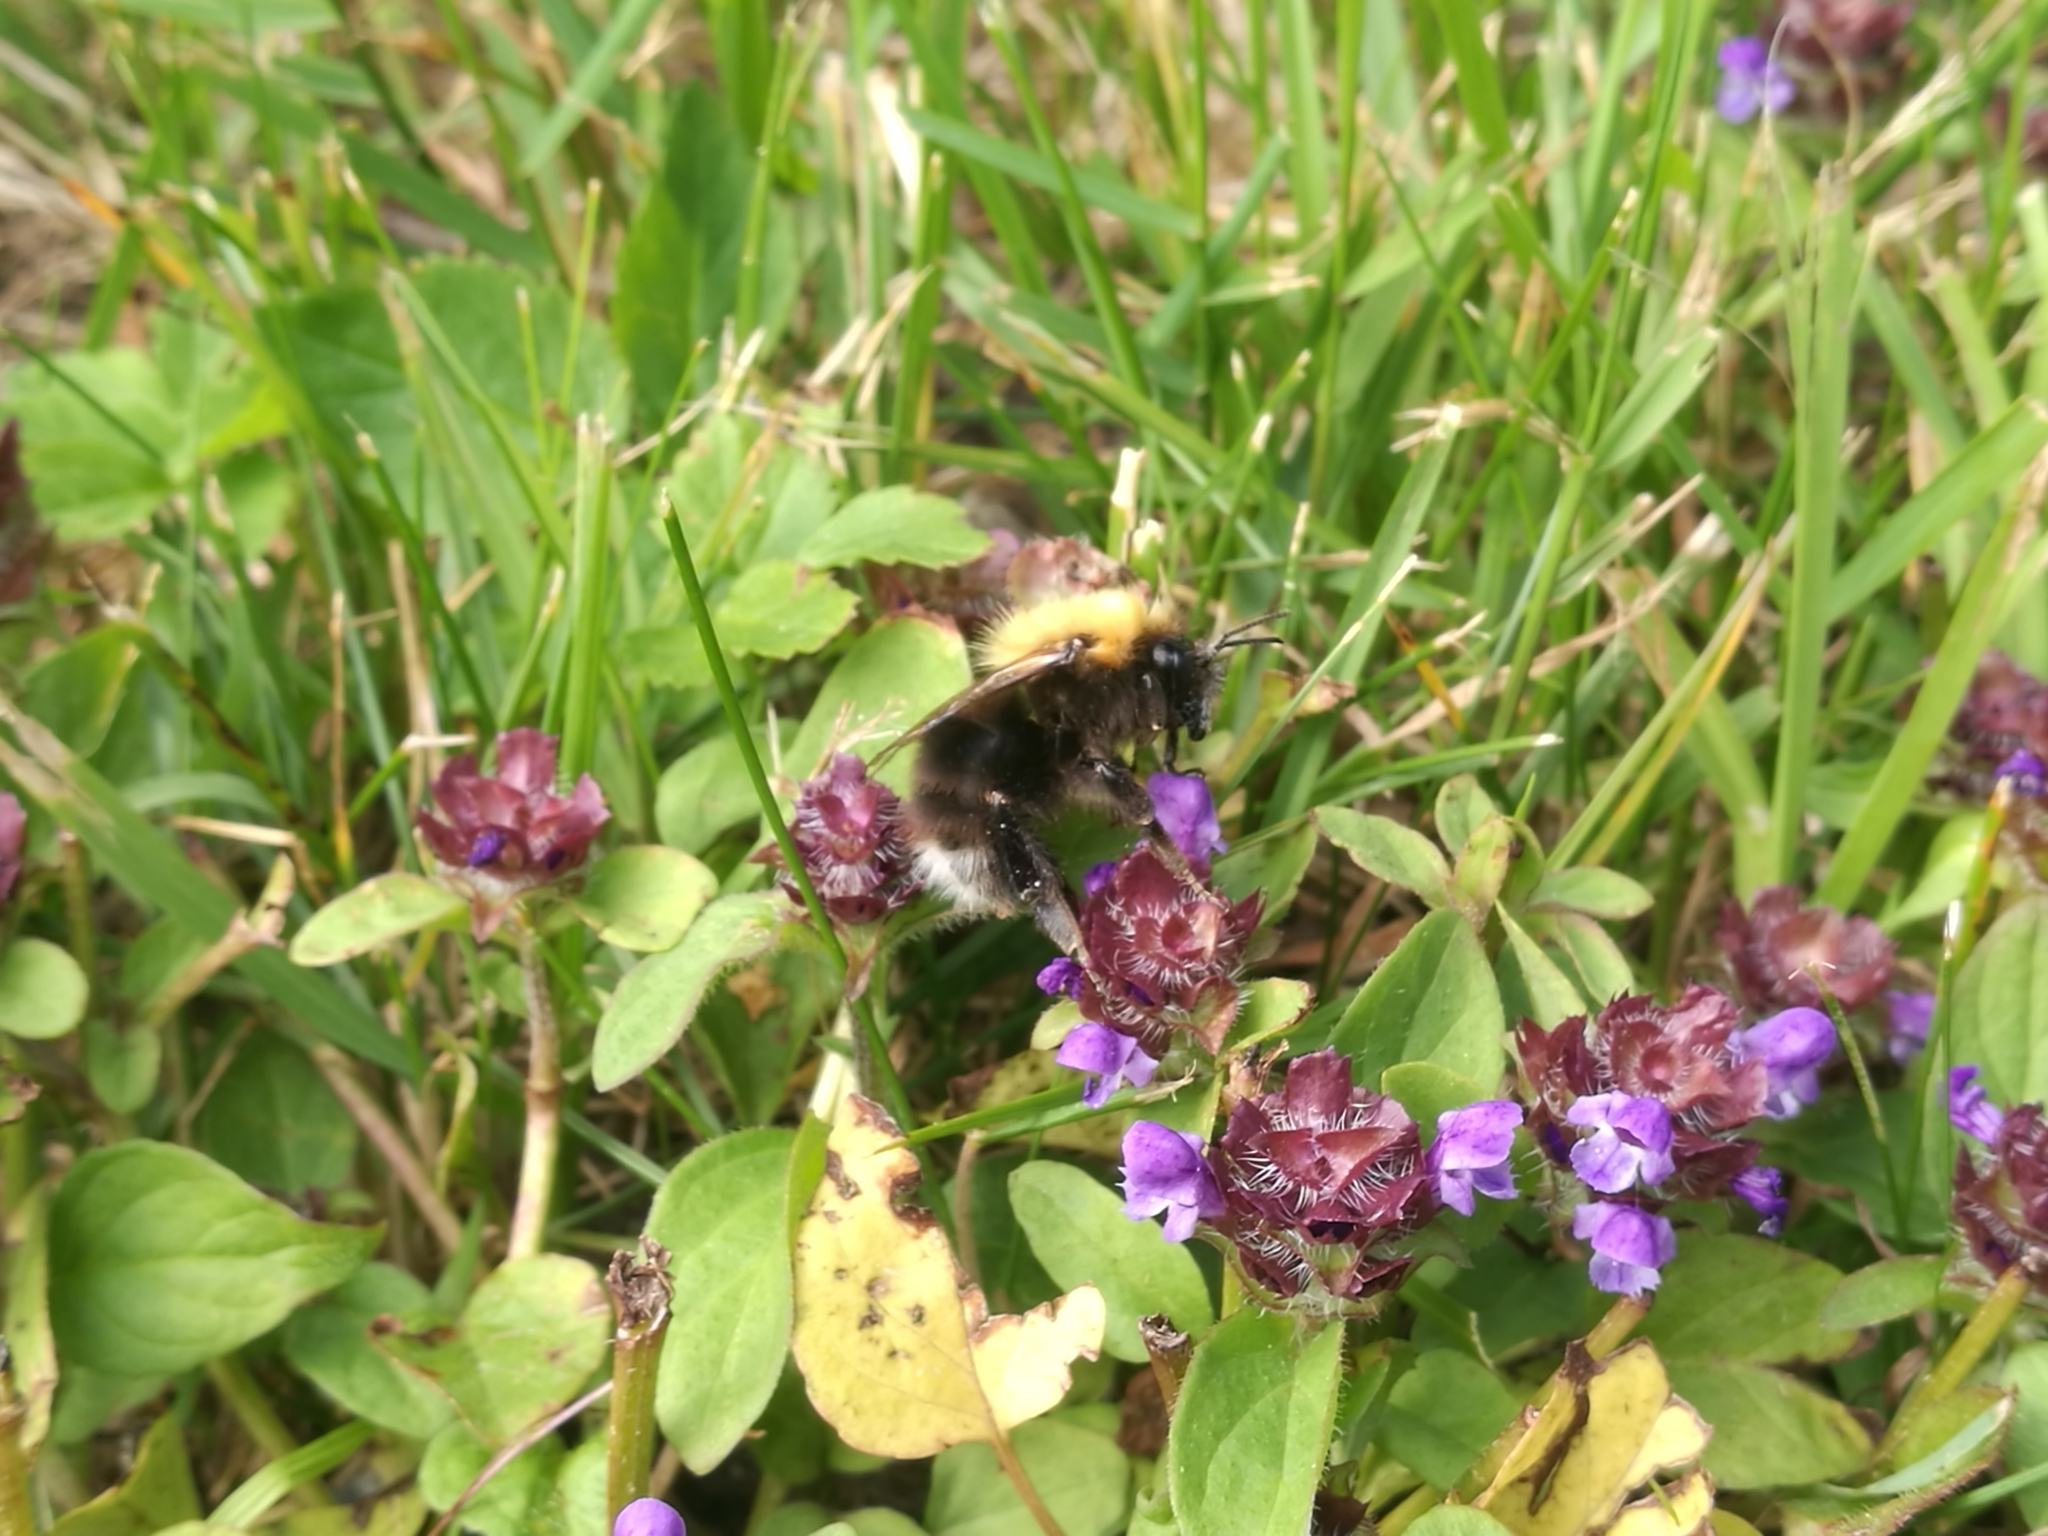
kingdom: Animalia
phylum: Arthropoda
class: Insecta
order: Hymenoptera
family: Apidae
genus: Bombus
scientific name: Bombus hypnorum
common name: New garden bumblebee
